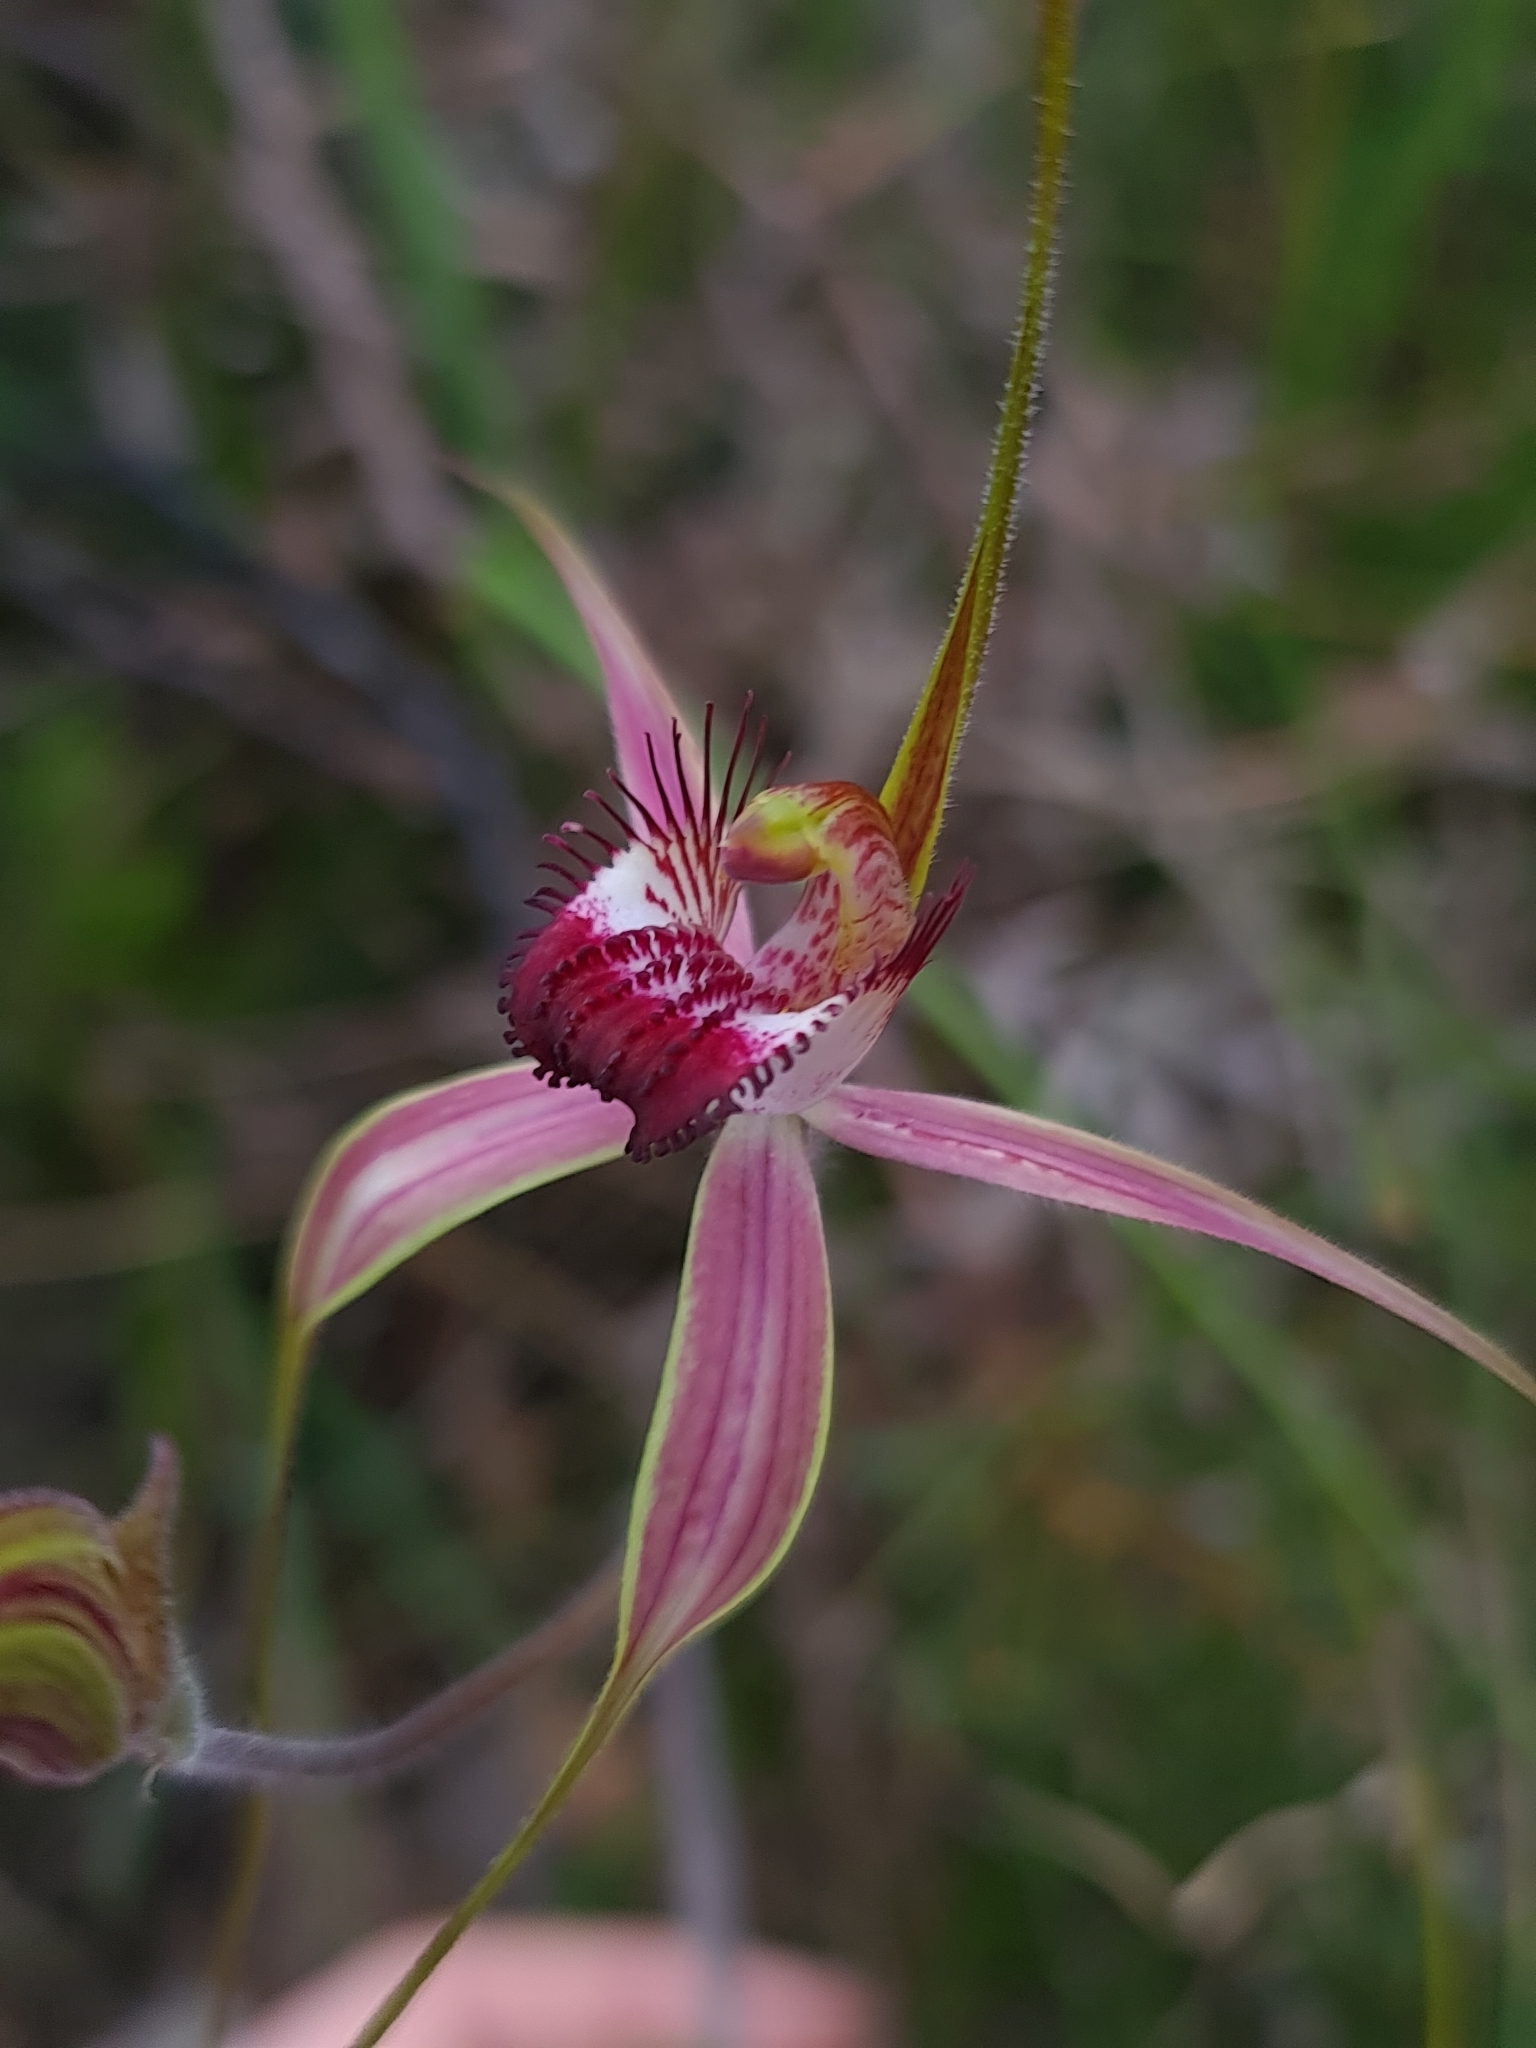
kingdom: Plantae
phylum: Tracheophyta
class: Liliopsida
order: Asparagales
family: Orchidaceae
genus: Caladenia
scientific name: Caladenia arenicola
